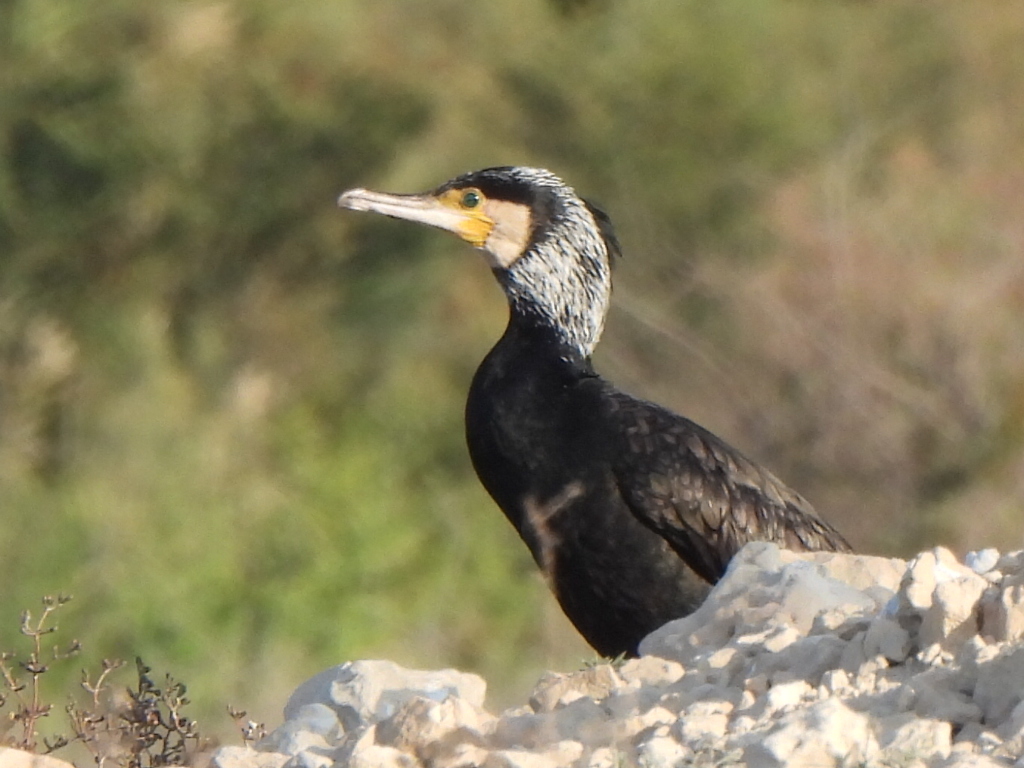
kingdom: Animalia
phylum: Chordata
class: Aves
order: Suliformes
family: Phalacrocoracidae
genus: Phalacrocorax
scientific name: Phalacrocorax carbo
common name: Great cormorant
